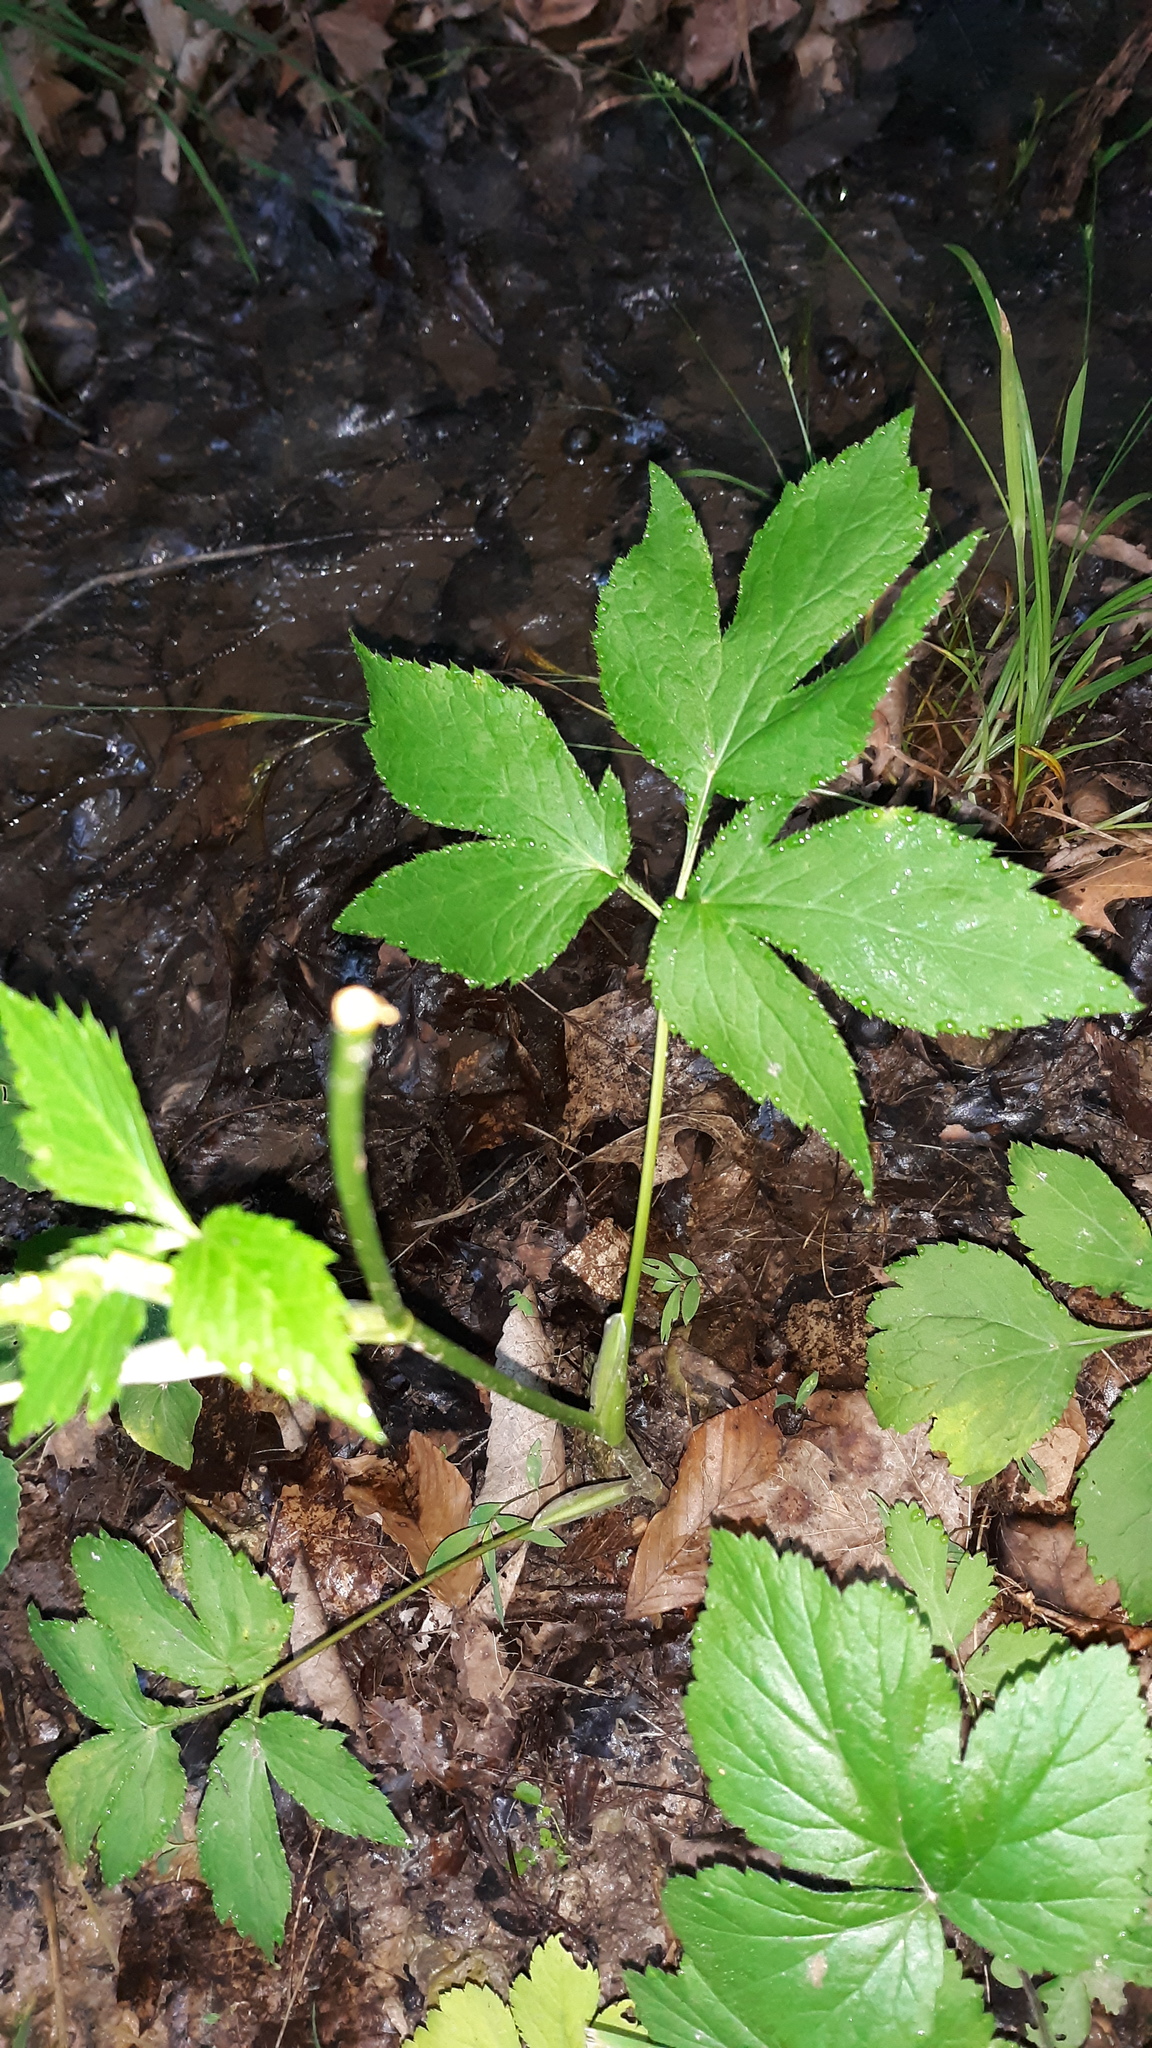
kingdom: Plantae
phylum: Tracheophyta
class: Magnoliopsida
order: Apiales
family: Apiaceae
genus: Cryptotaenia
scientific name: Cryptotaenia canadensis
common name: Honewort
